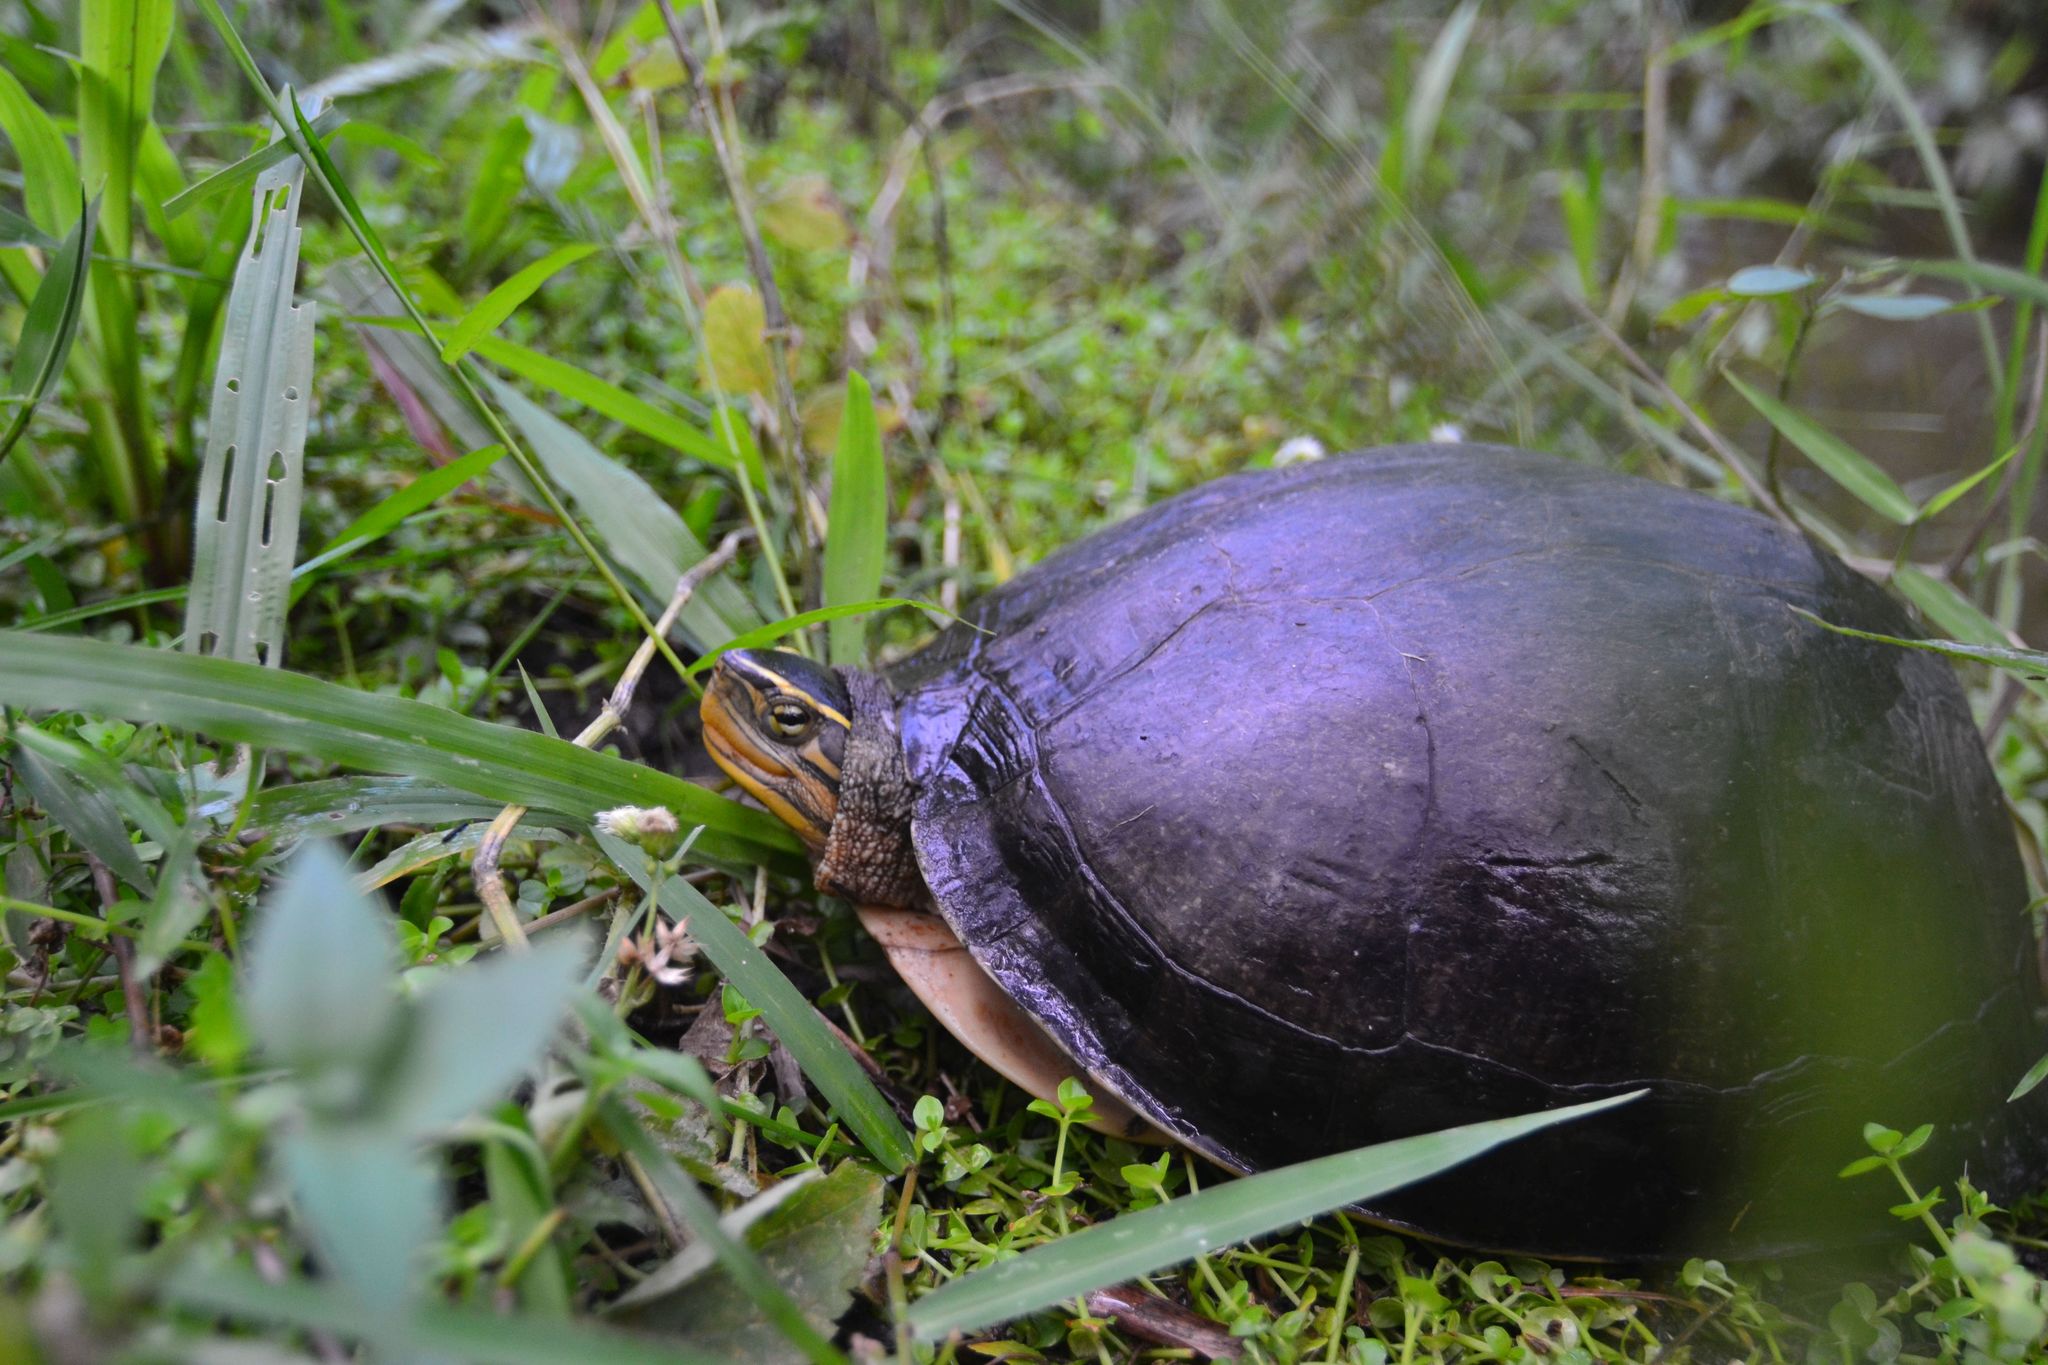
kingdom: Animalia
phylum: Chordata
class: Testudines
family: Geoemydidae
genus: Cuora
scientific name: Cuora
